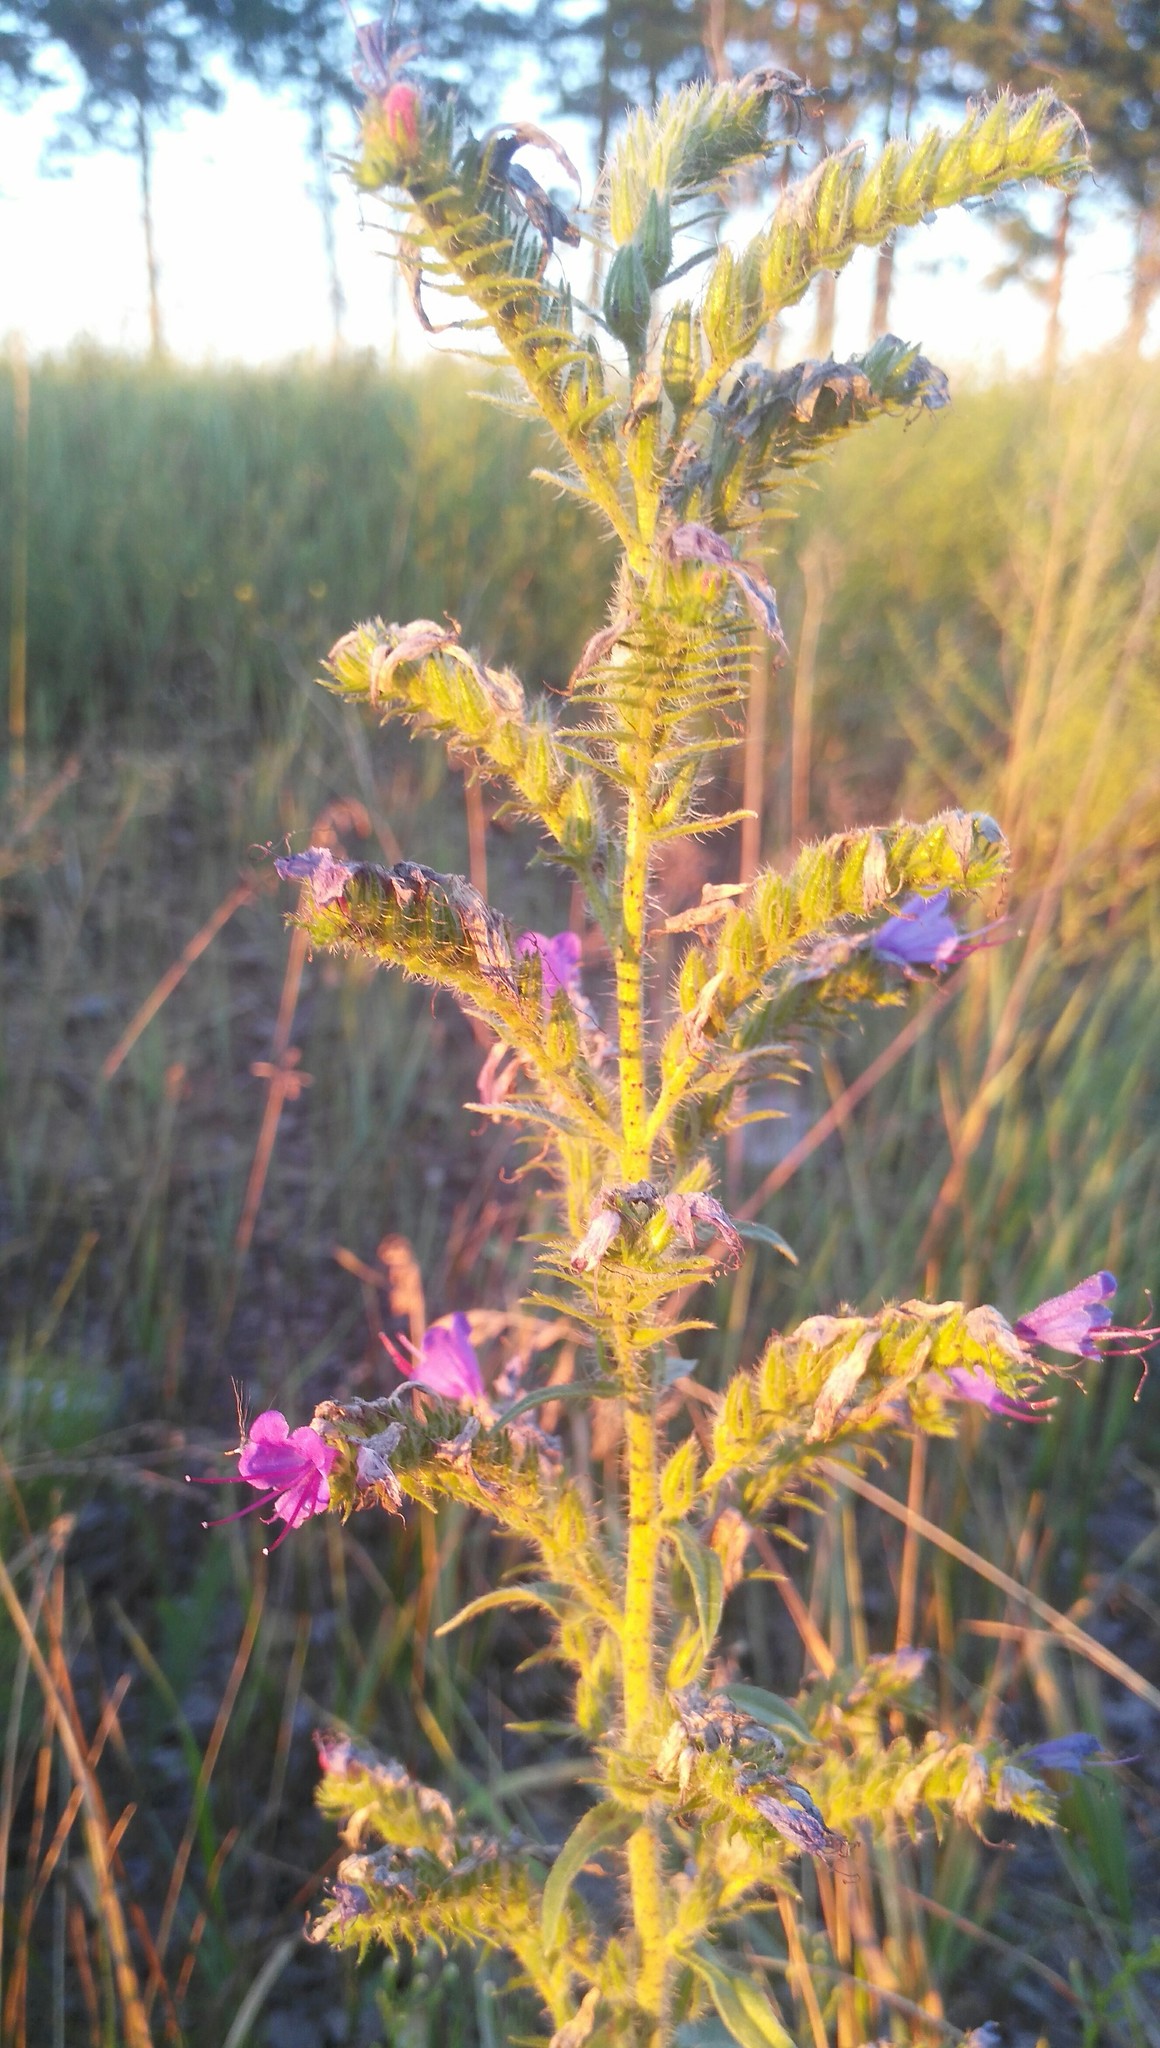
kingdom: Plantae
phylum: Tracheophyta
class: Magnoliopsida
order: Boraginales
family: Boraginaceae
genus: Echium
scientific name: Echium vulgare
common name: Common viper's bugloss
